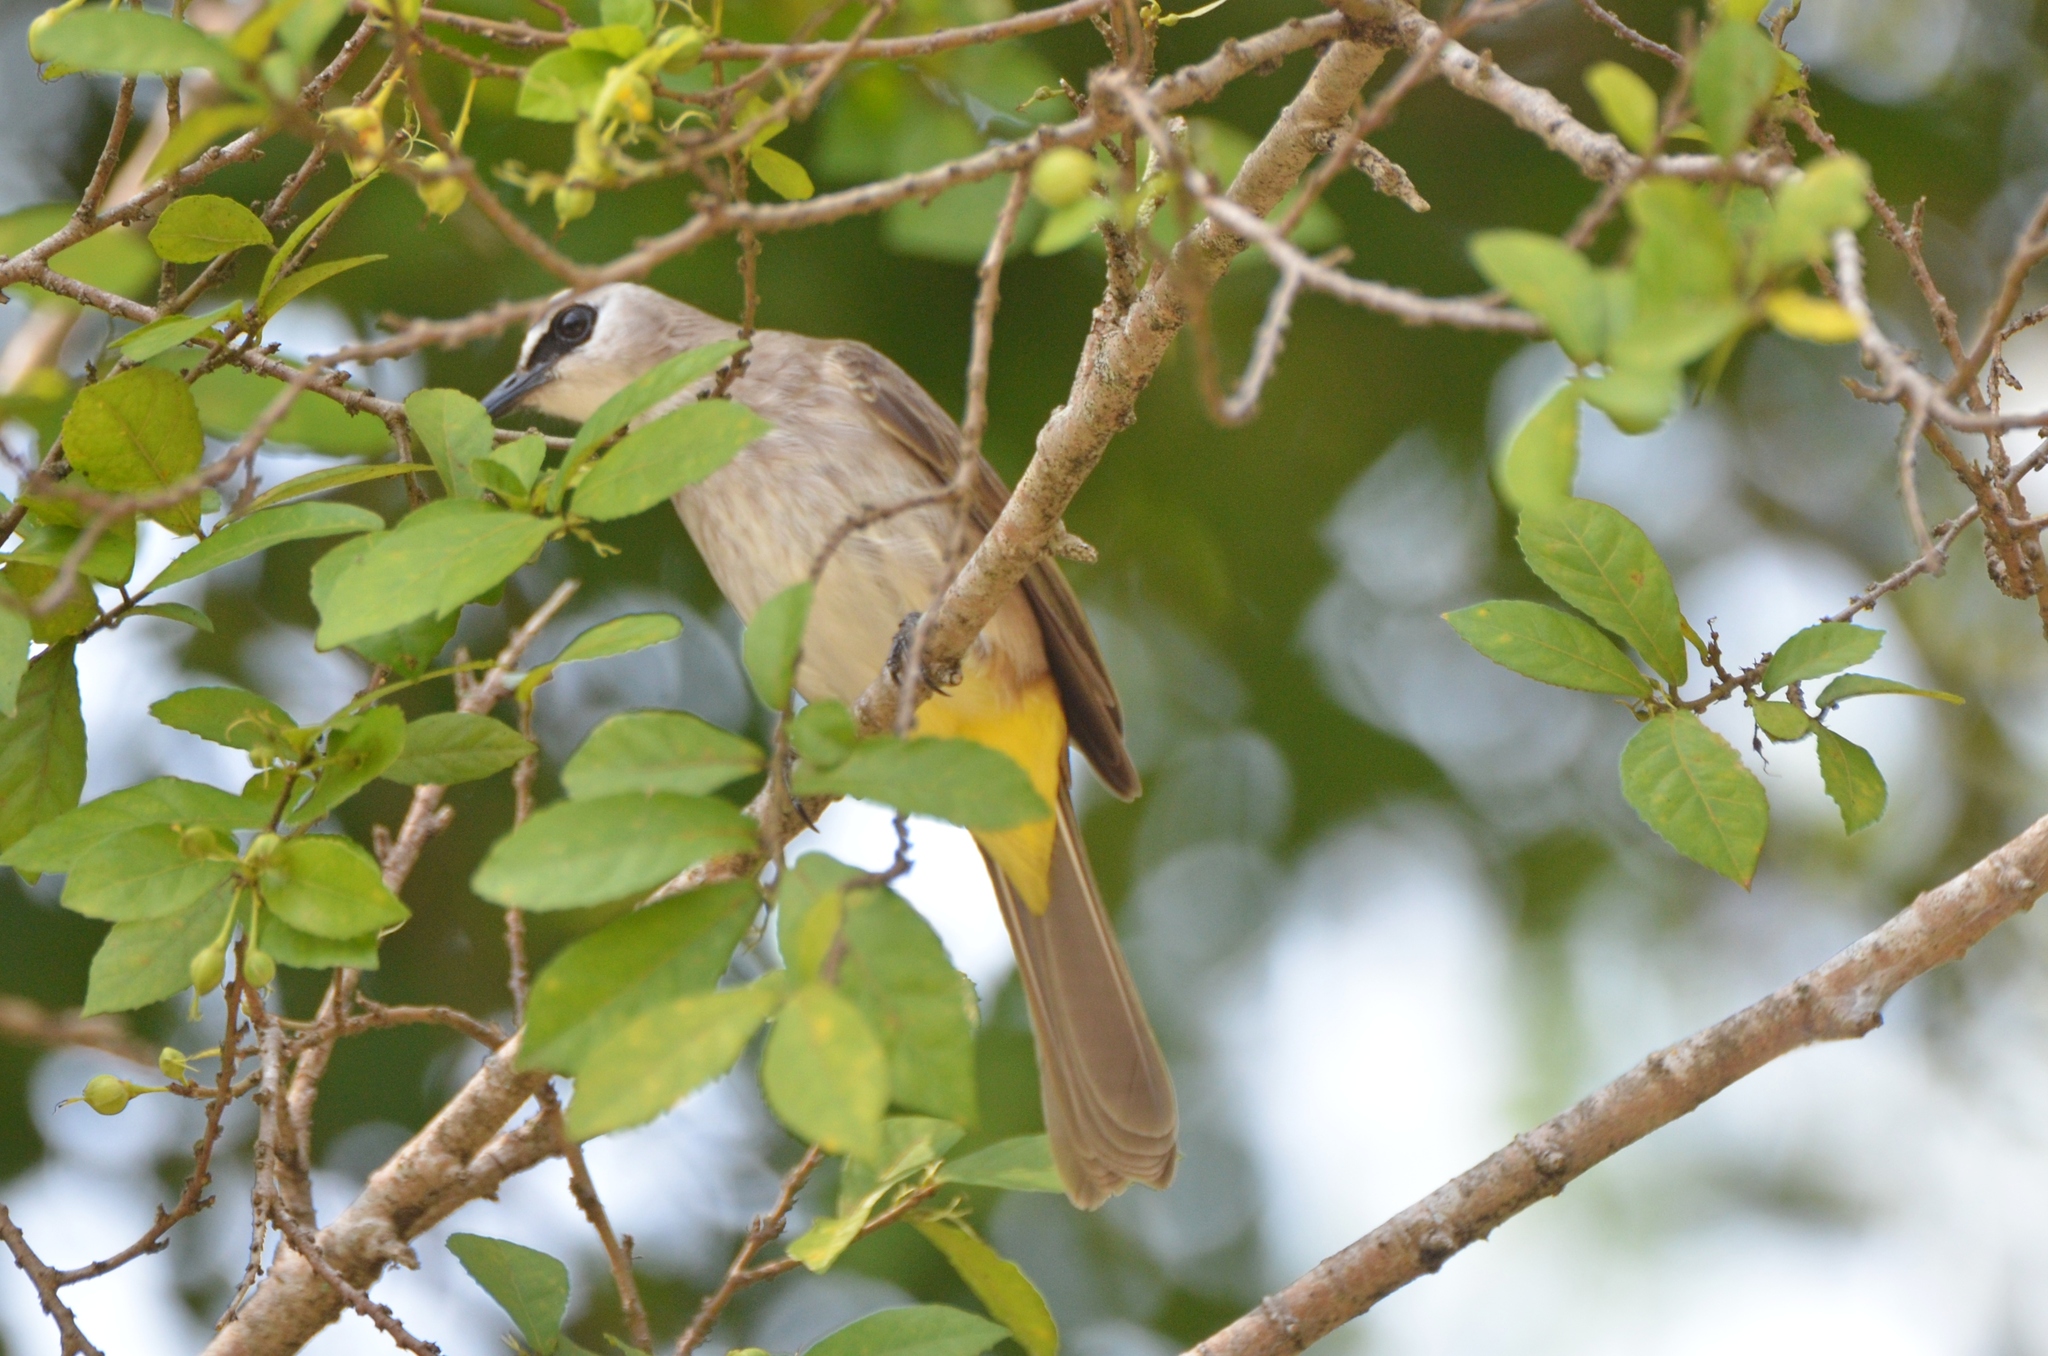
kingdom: Animalia
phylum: Chordata
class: Aves
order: Passeriformes
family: Pycnonotidae
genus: Pycnonotus
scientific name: Pycnonotus goiavier
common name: Yellow-vented bulbul
